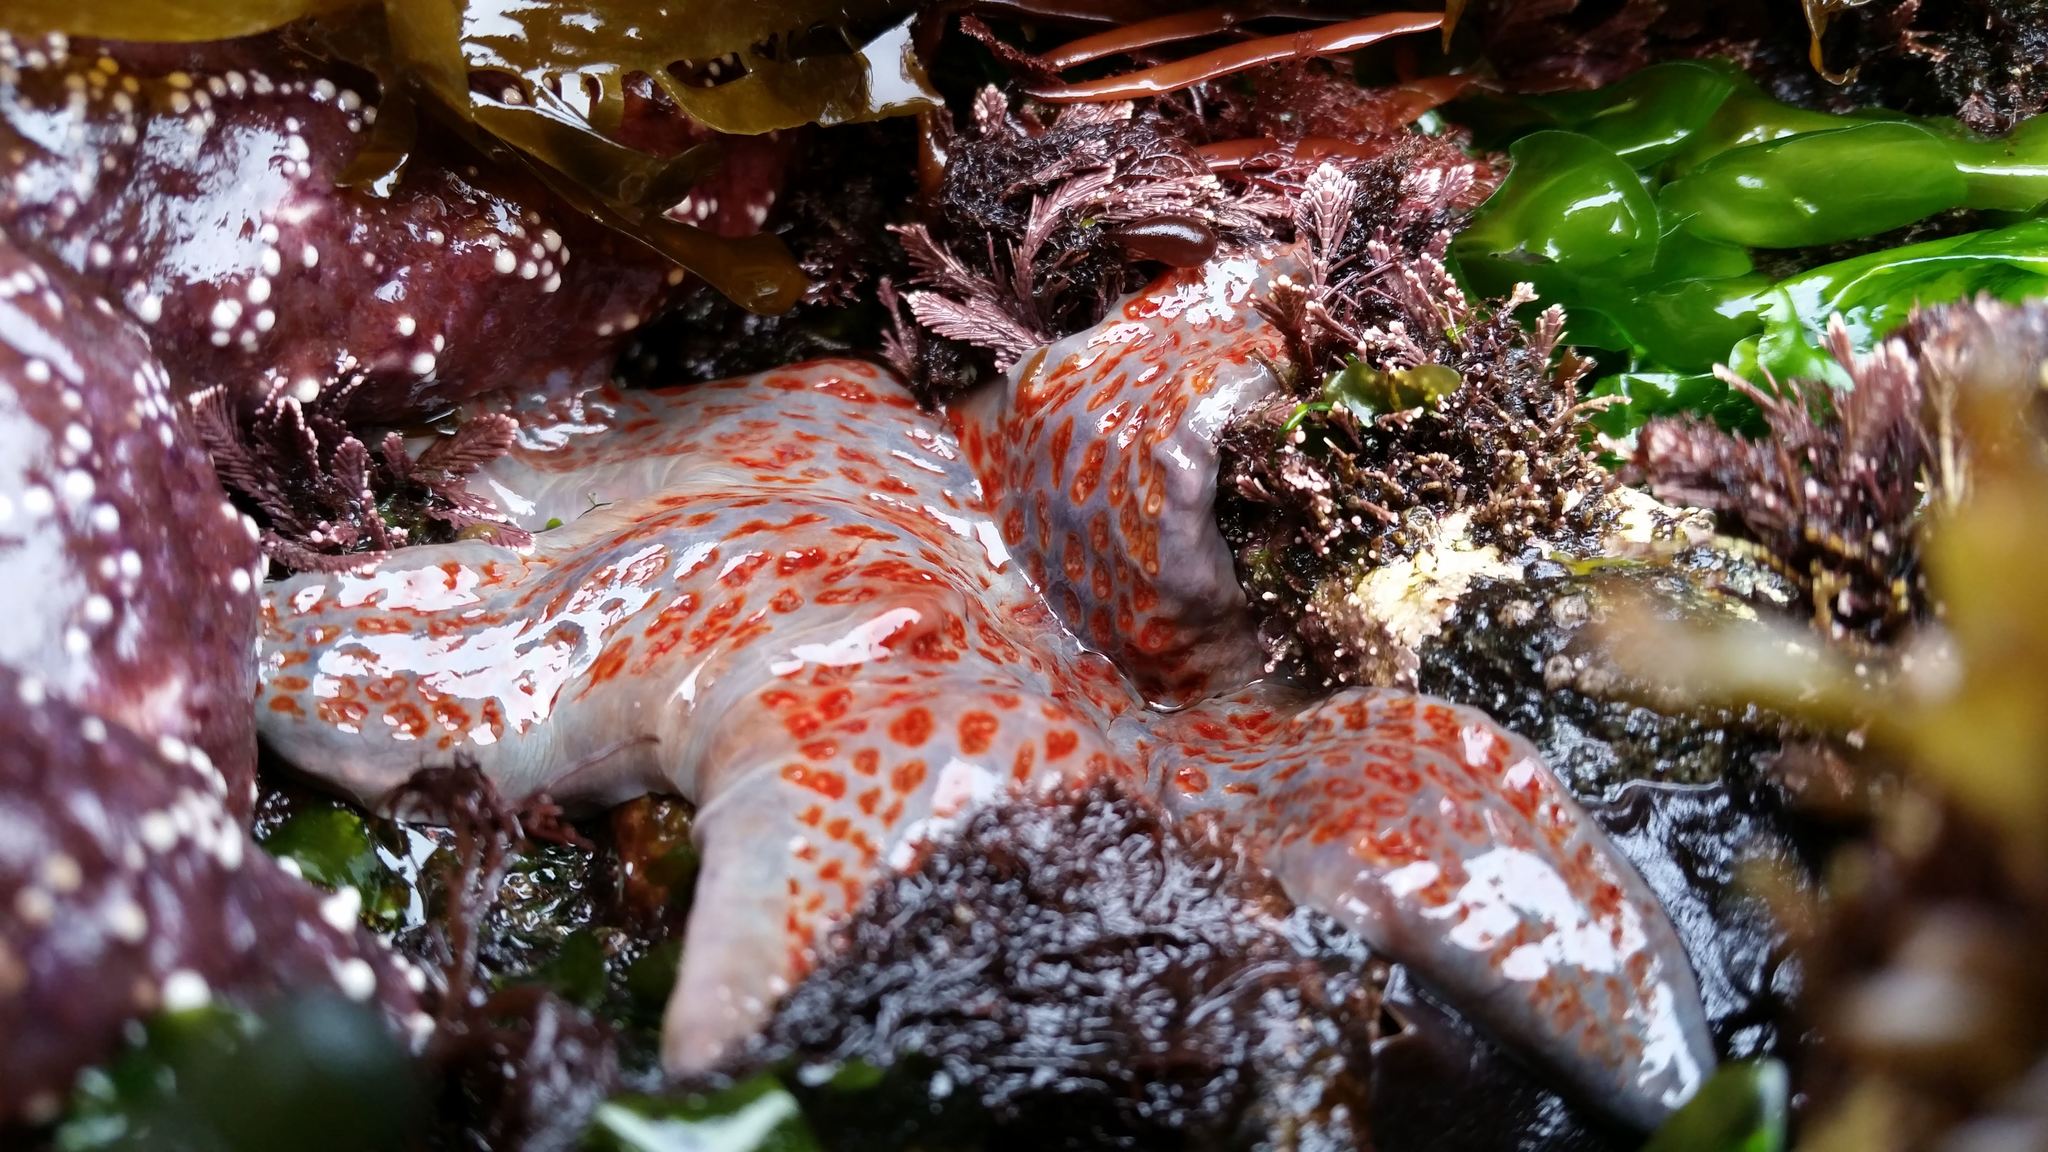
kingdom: Animalia
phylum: Echinodermata
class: Asteroidea
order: Valvatida
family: Asteropseidae
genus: Dermasterias
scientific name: Dermasterias imbricata
